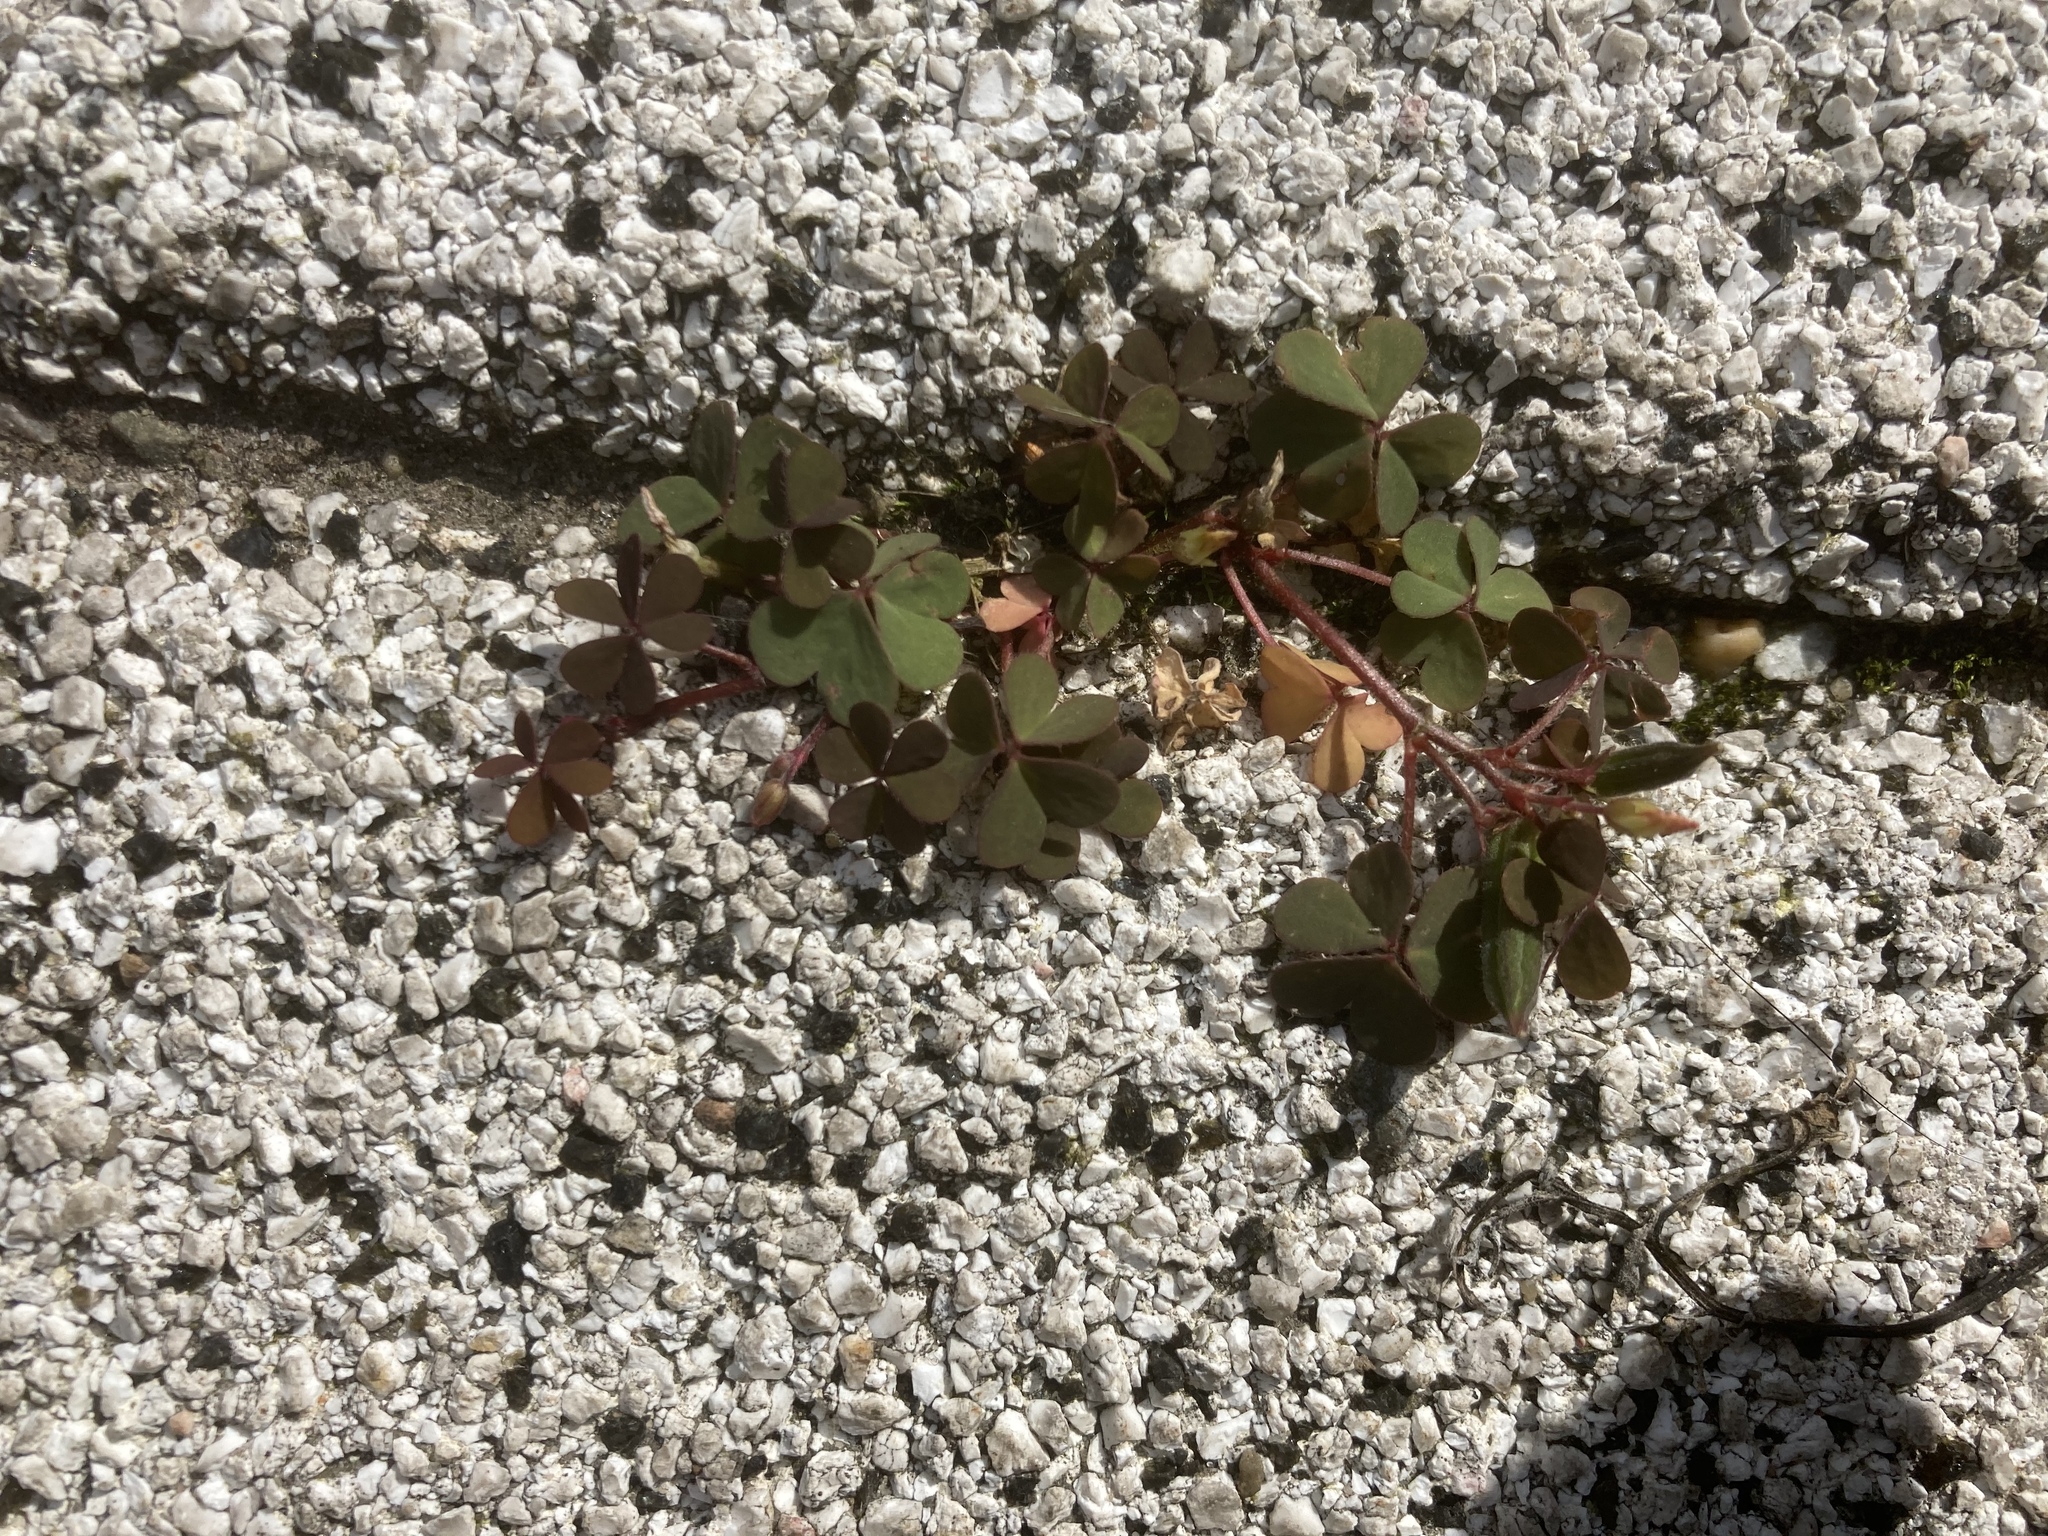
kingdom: Plantae
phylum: Tracheophyta
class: Magnoliopsida
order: Oxalidales
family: Oxalidaceae
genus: Oxalis
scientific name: Oxalis corniculata
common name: Procumbent yellow-sorrel
